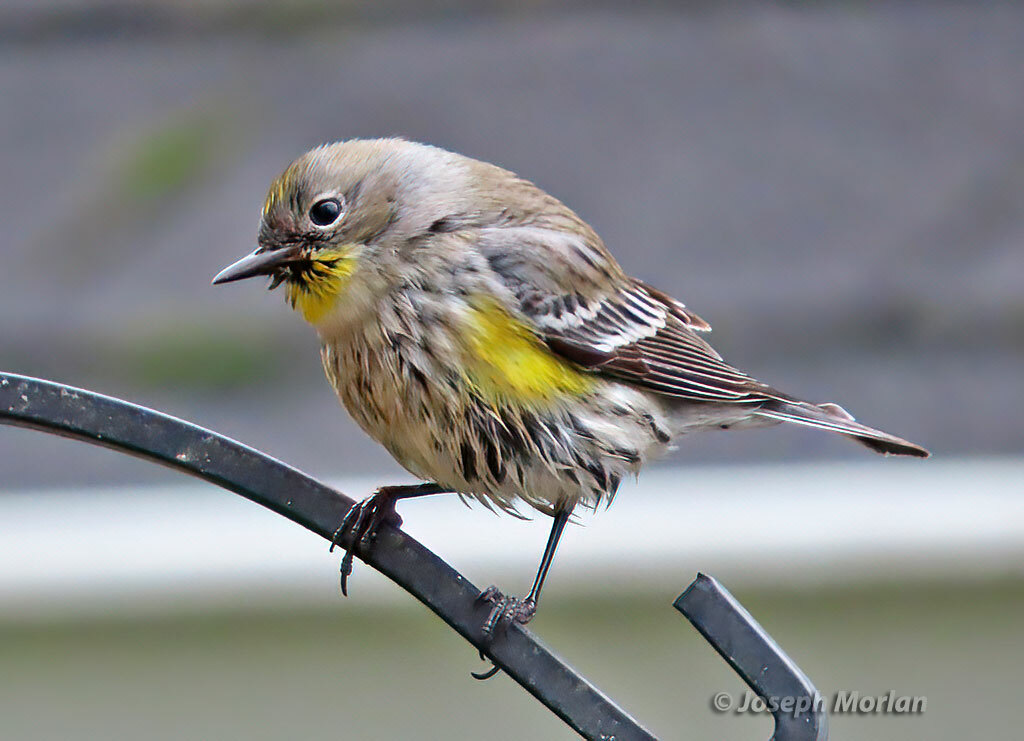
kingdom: Animalia
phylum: Chordata
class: Aves
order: Passeriformes
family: Parulidae
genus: Setophaga
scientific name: Setophaga coronata
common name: Myrtle warbler
